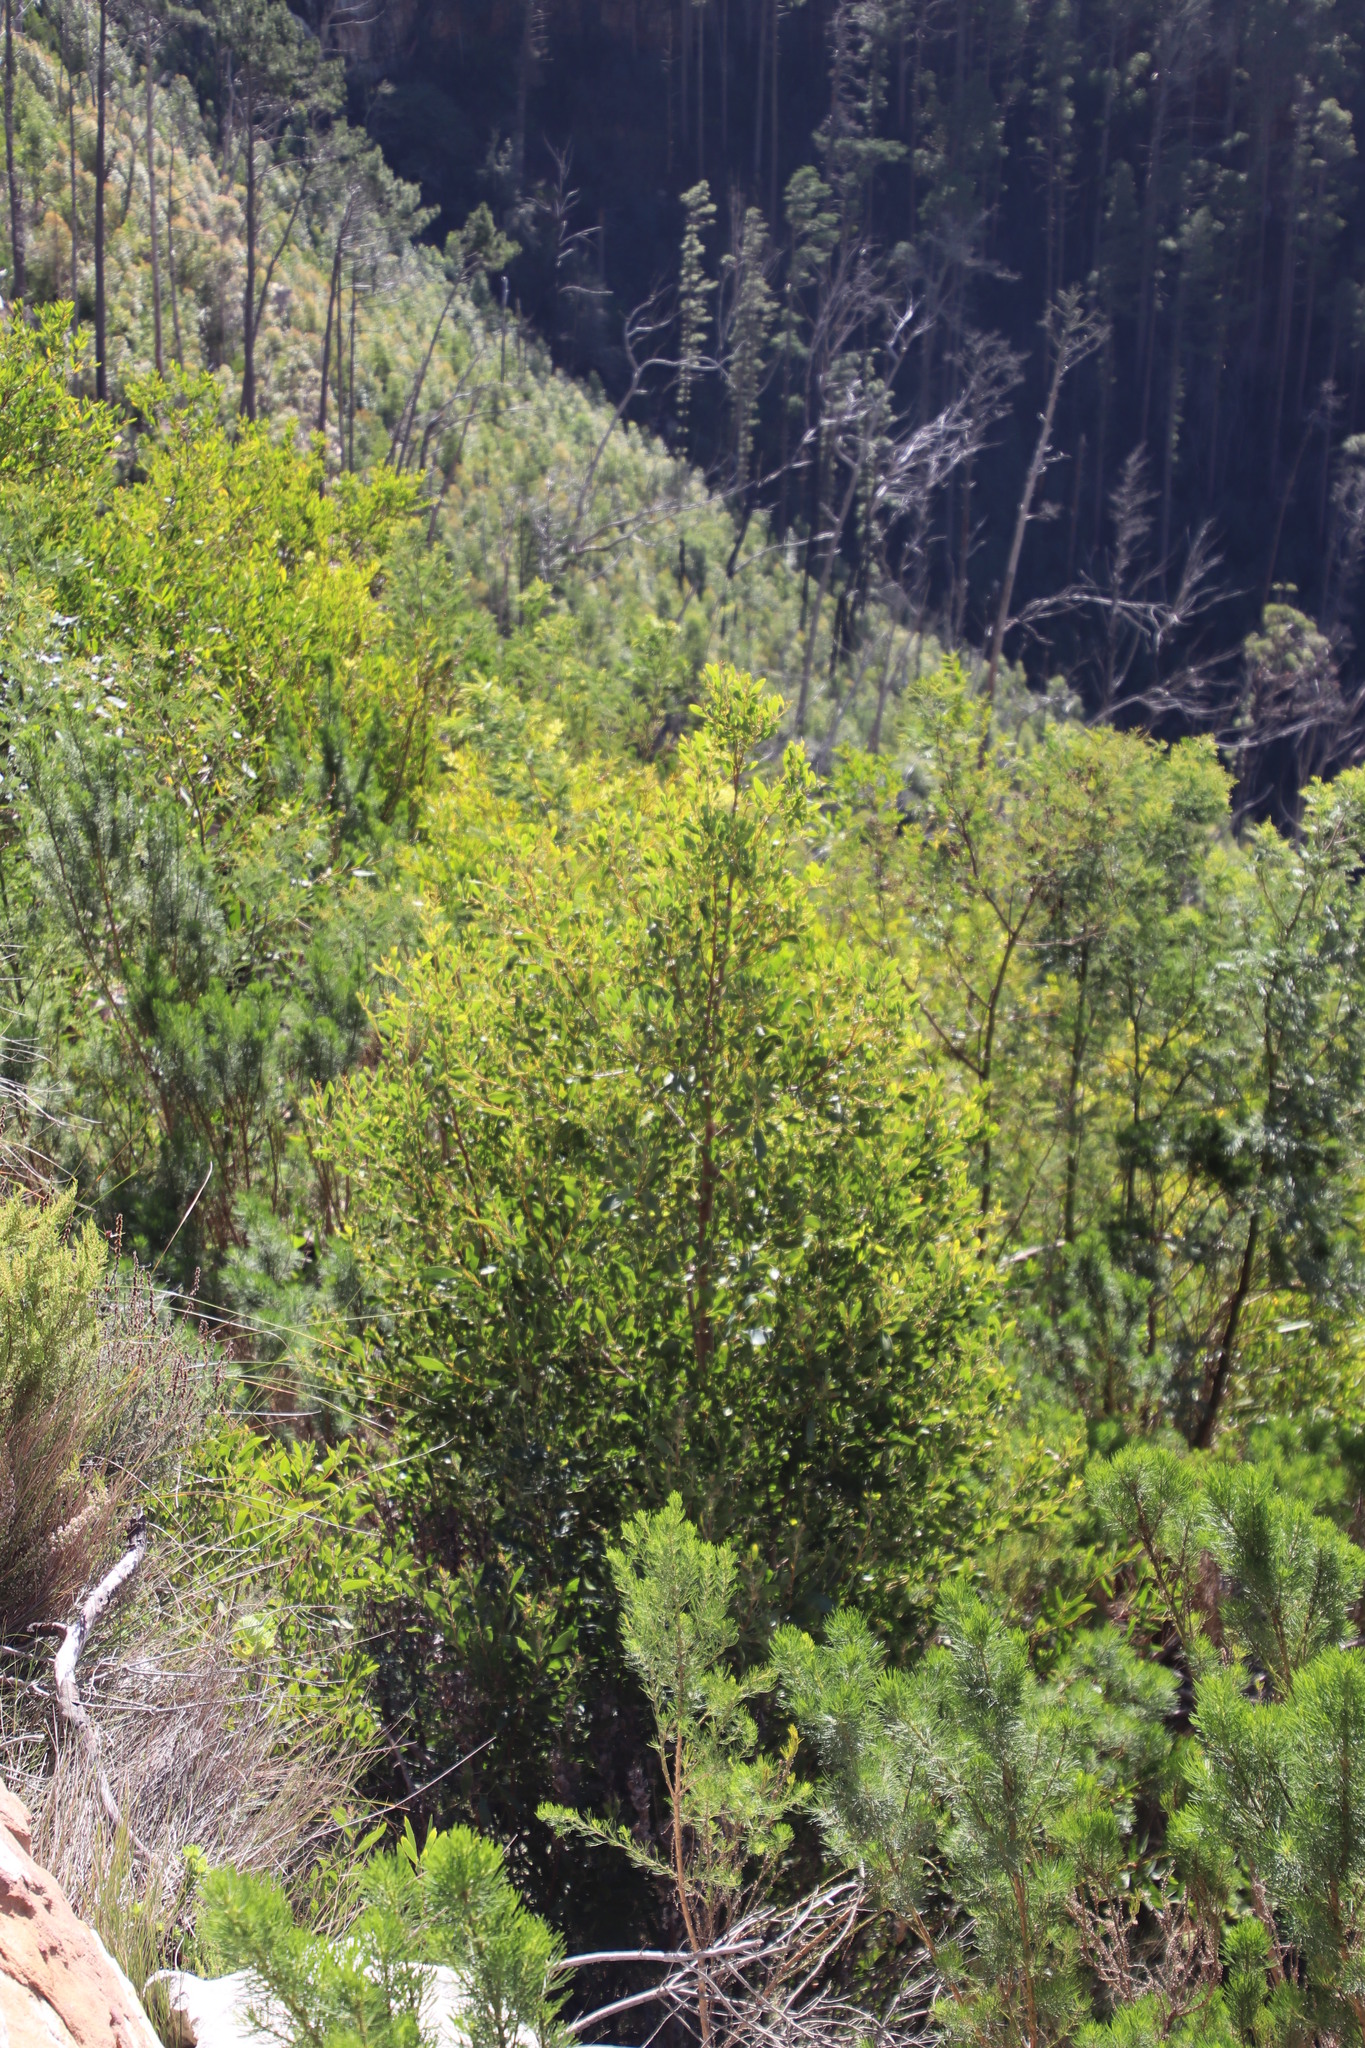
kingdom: Plantae
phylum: Tracheophyta
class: Magnoliopsida
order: Fabales
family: Fabaceae
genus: Acacia
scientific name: Acacia melanoxylon
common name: Blackwood
